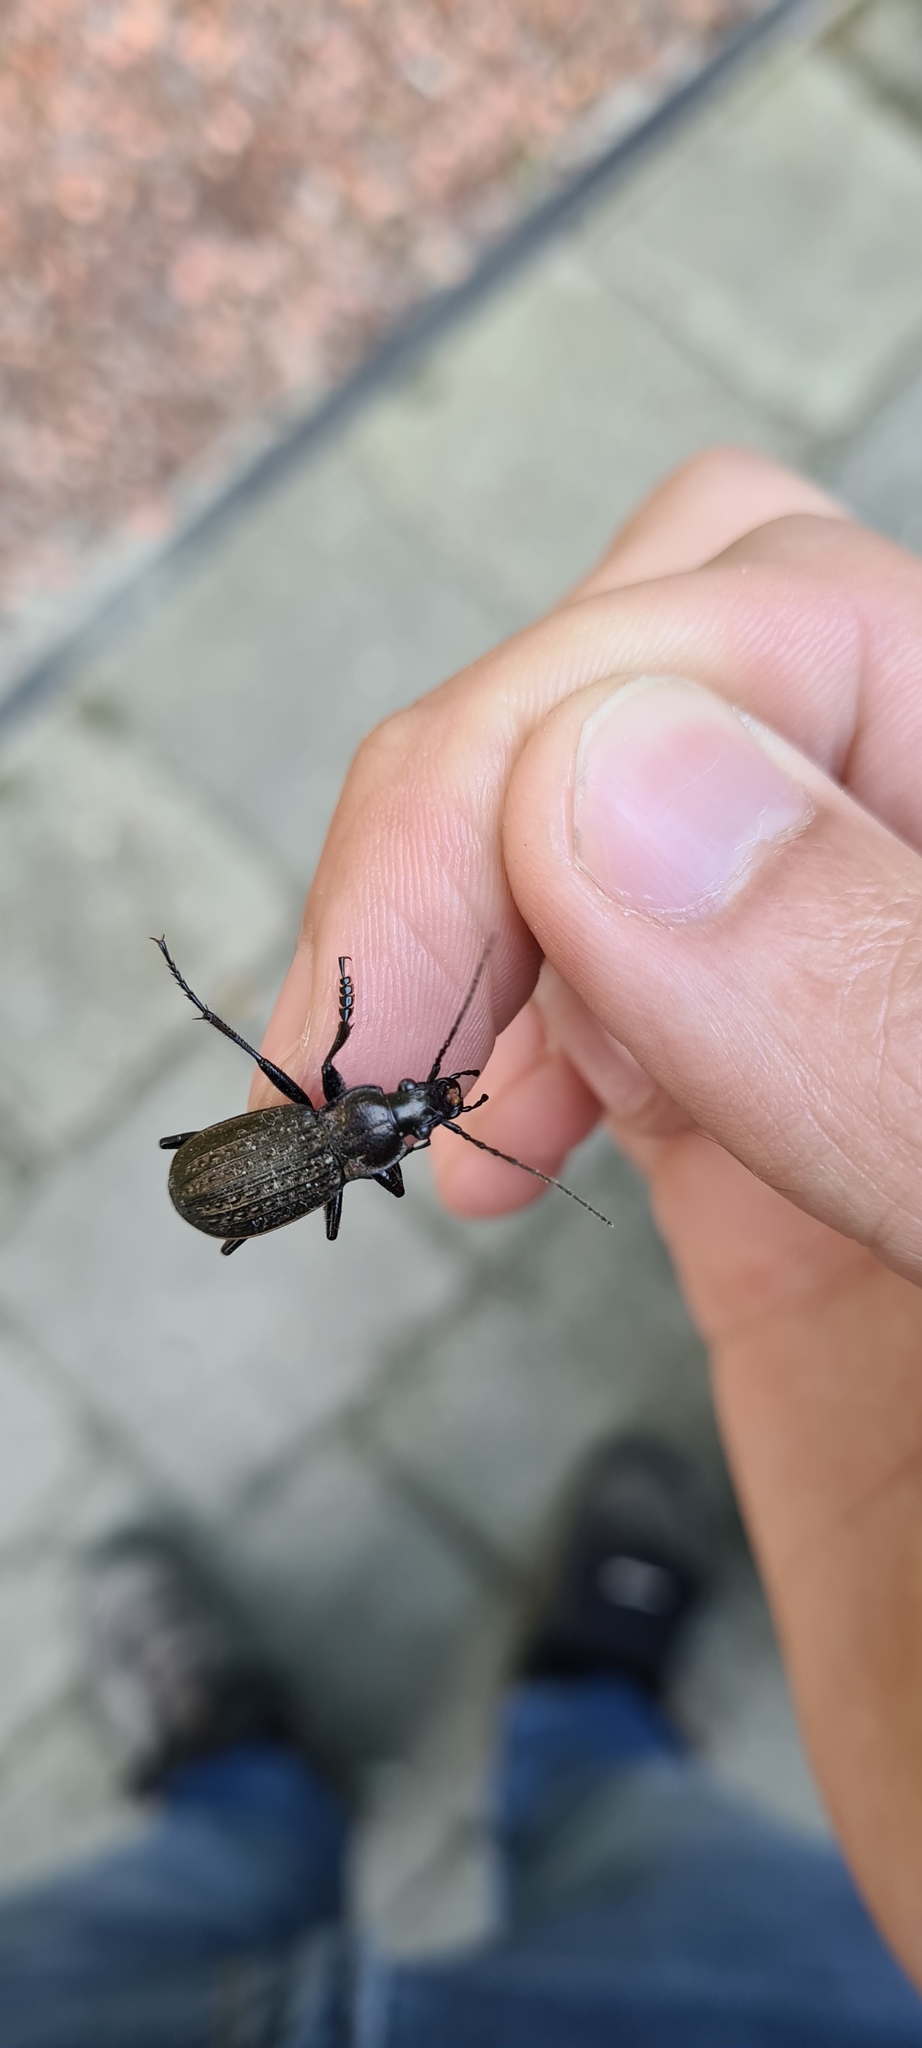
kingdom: Animalia
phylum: Arthropoda
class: Insecta
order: Coleoptera
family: Carabidae
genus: Carabus
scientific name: Carabus granulatus
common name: Granulate ground beetle
